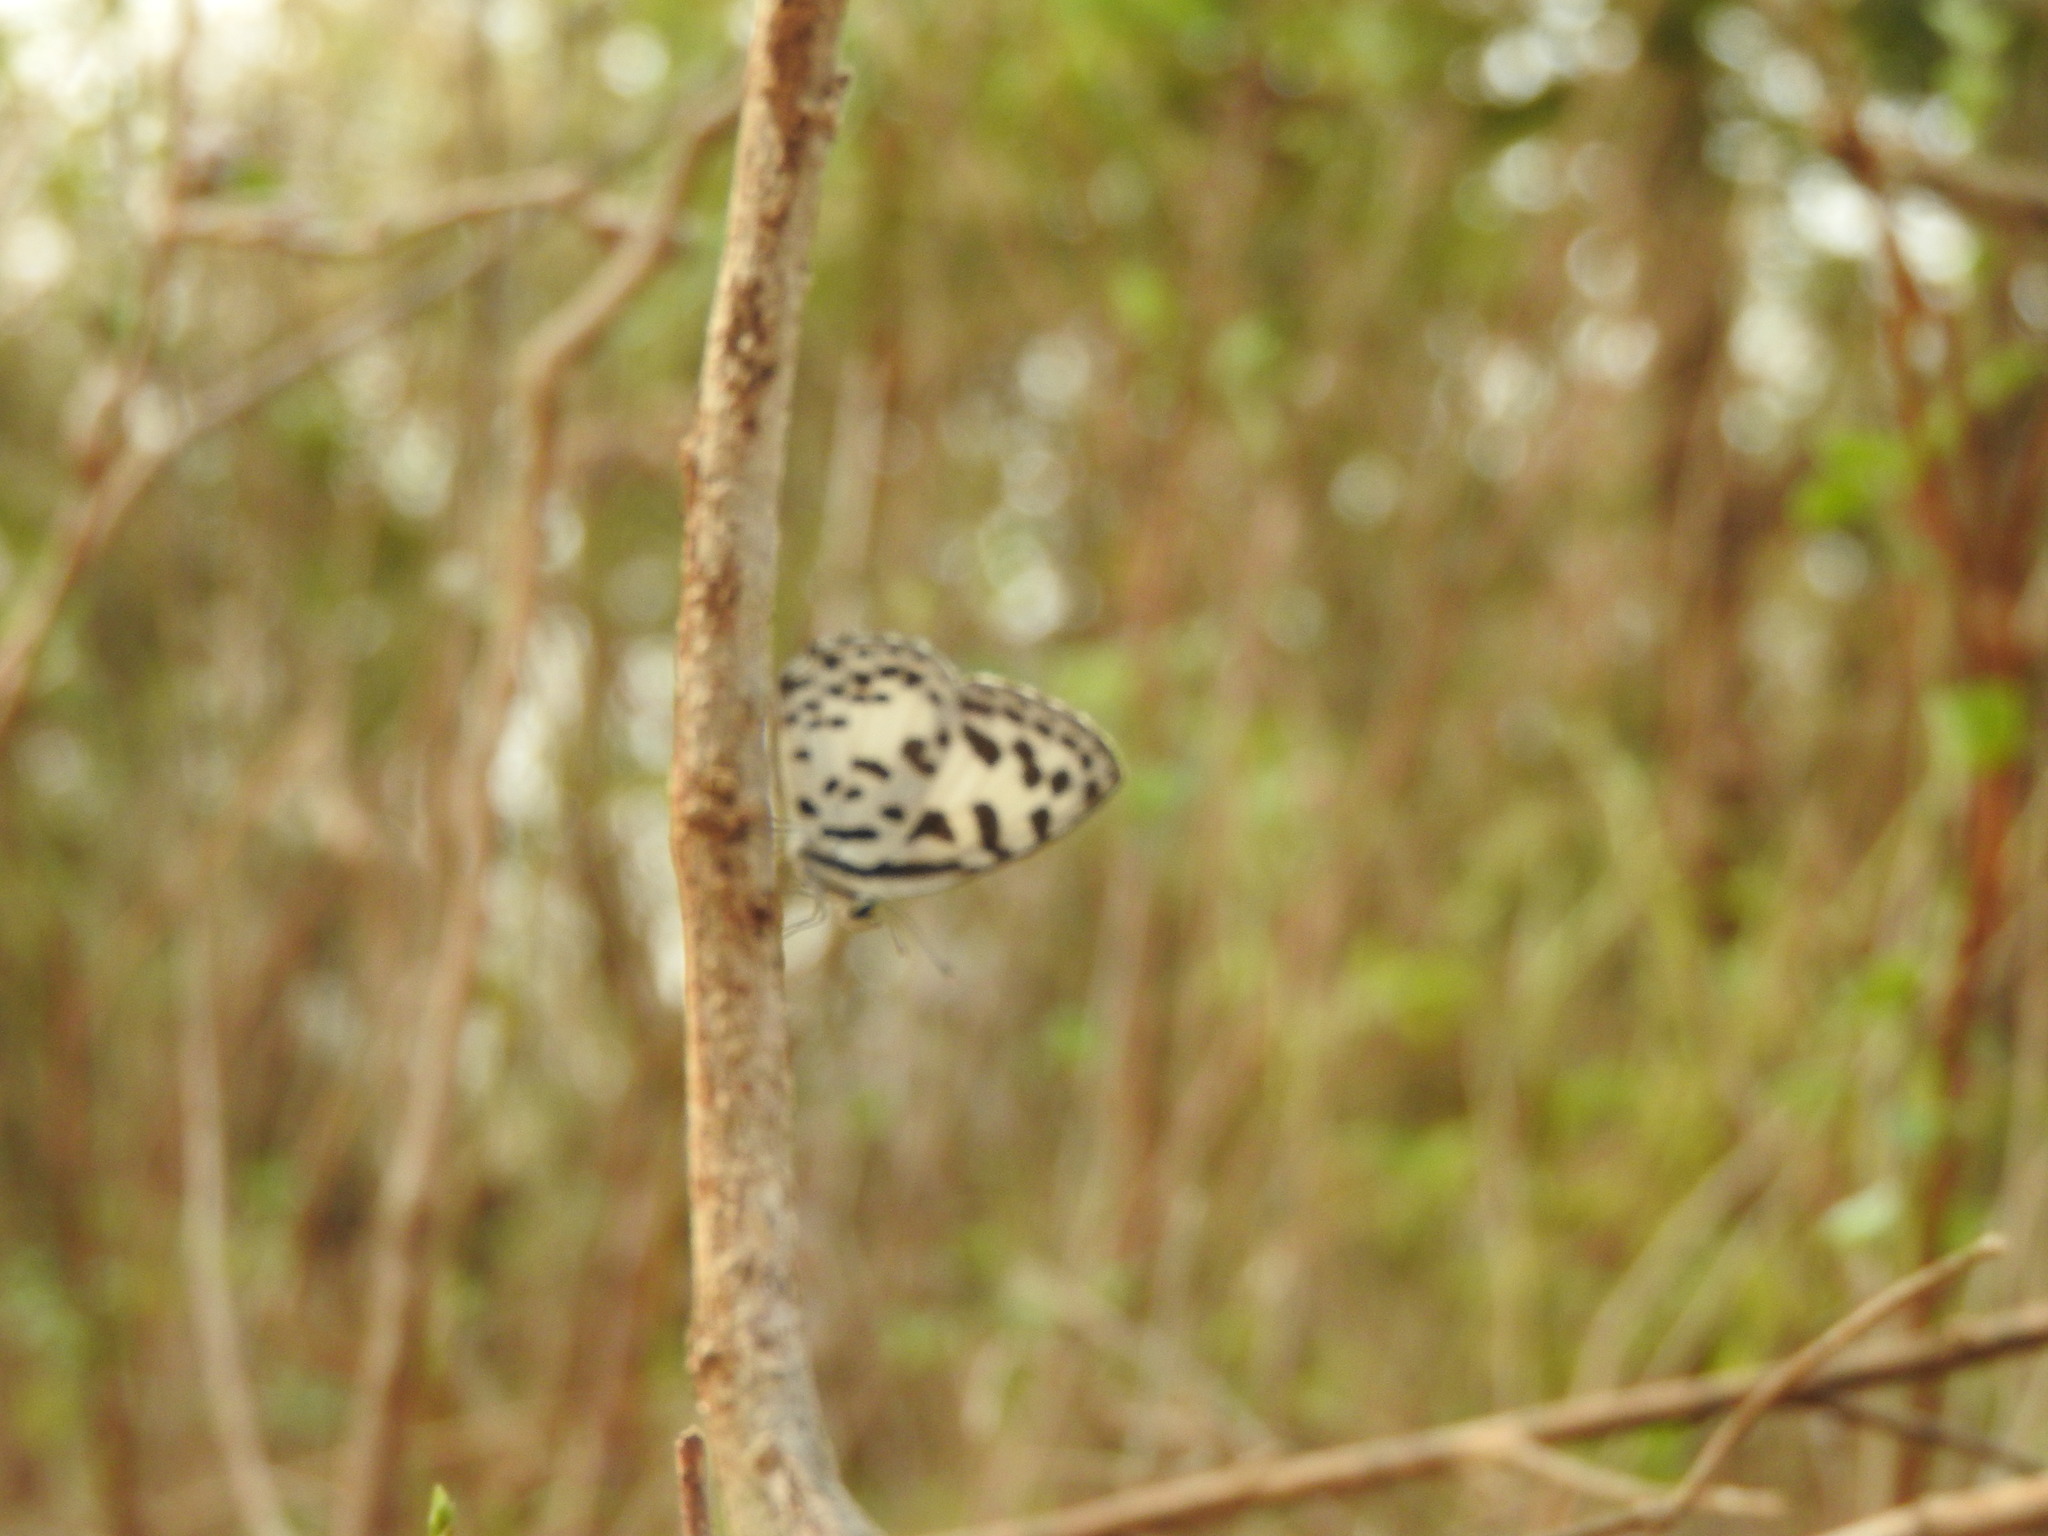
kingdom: Animalia
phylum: Arthropoda
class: Insecta
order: Lepidoptera
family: Lycaenidae
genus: Castalius
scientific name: Castalius rosimon
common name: Common pierrot
